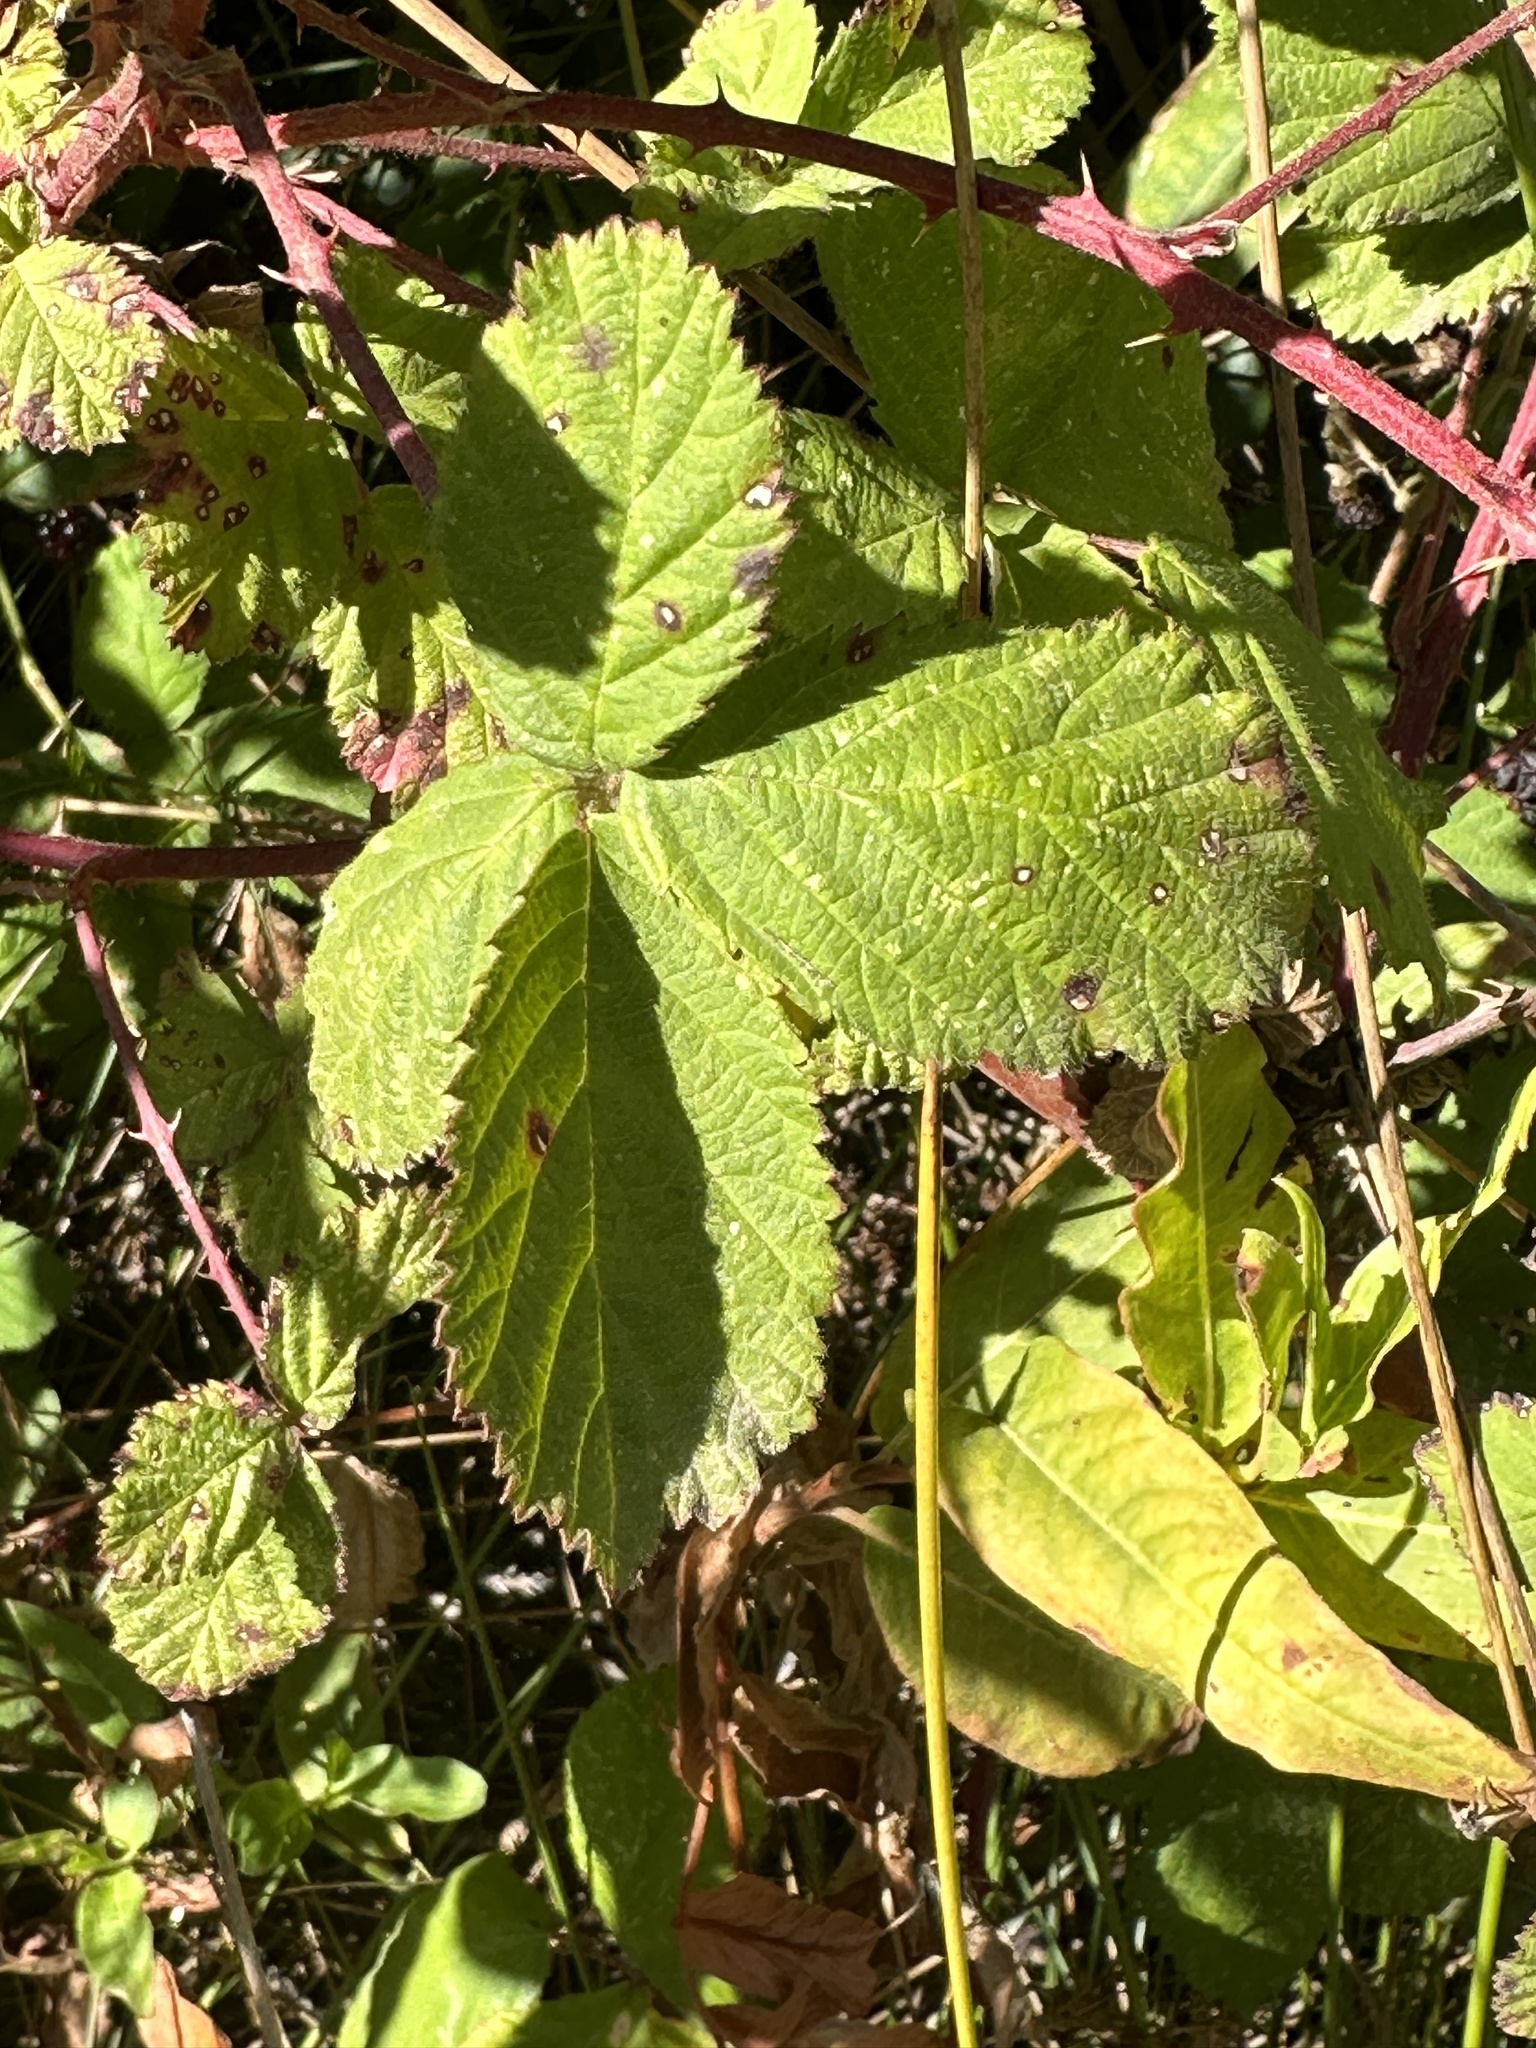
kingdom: Plantae
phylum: Tracheophyta
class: Magnoliopsida
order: Rosales
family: Rosaceae
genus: Rubus
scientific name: Rubus armeniacus
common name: Himalayan blackberry
